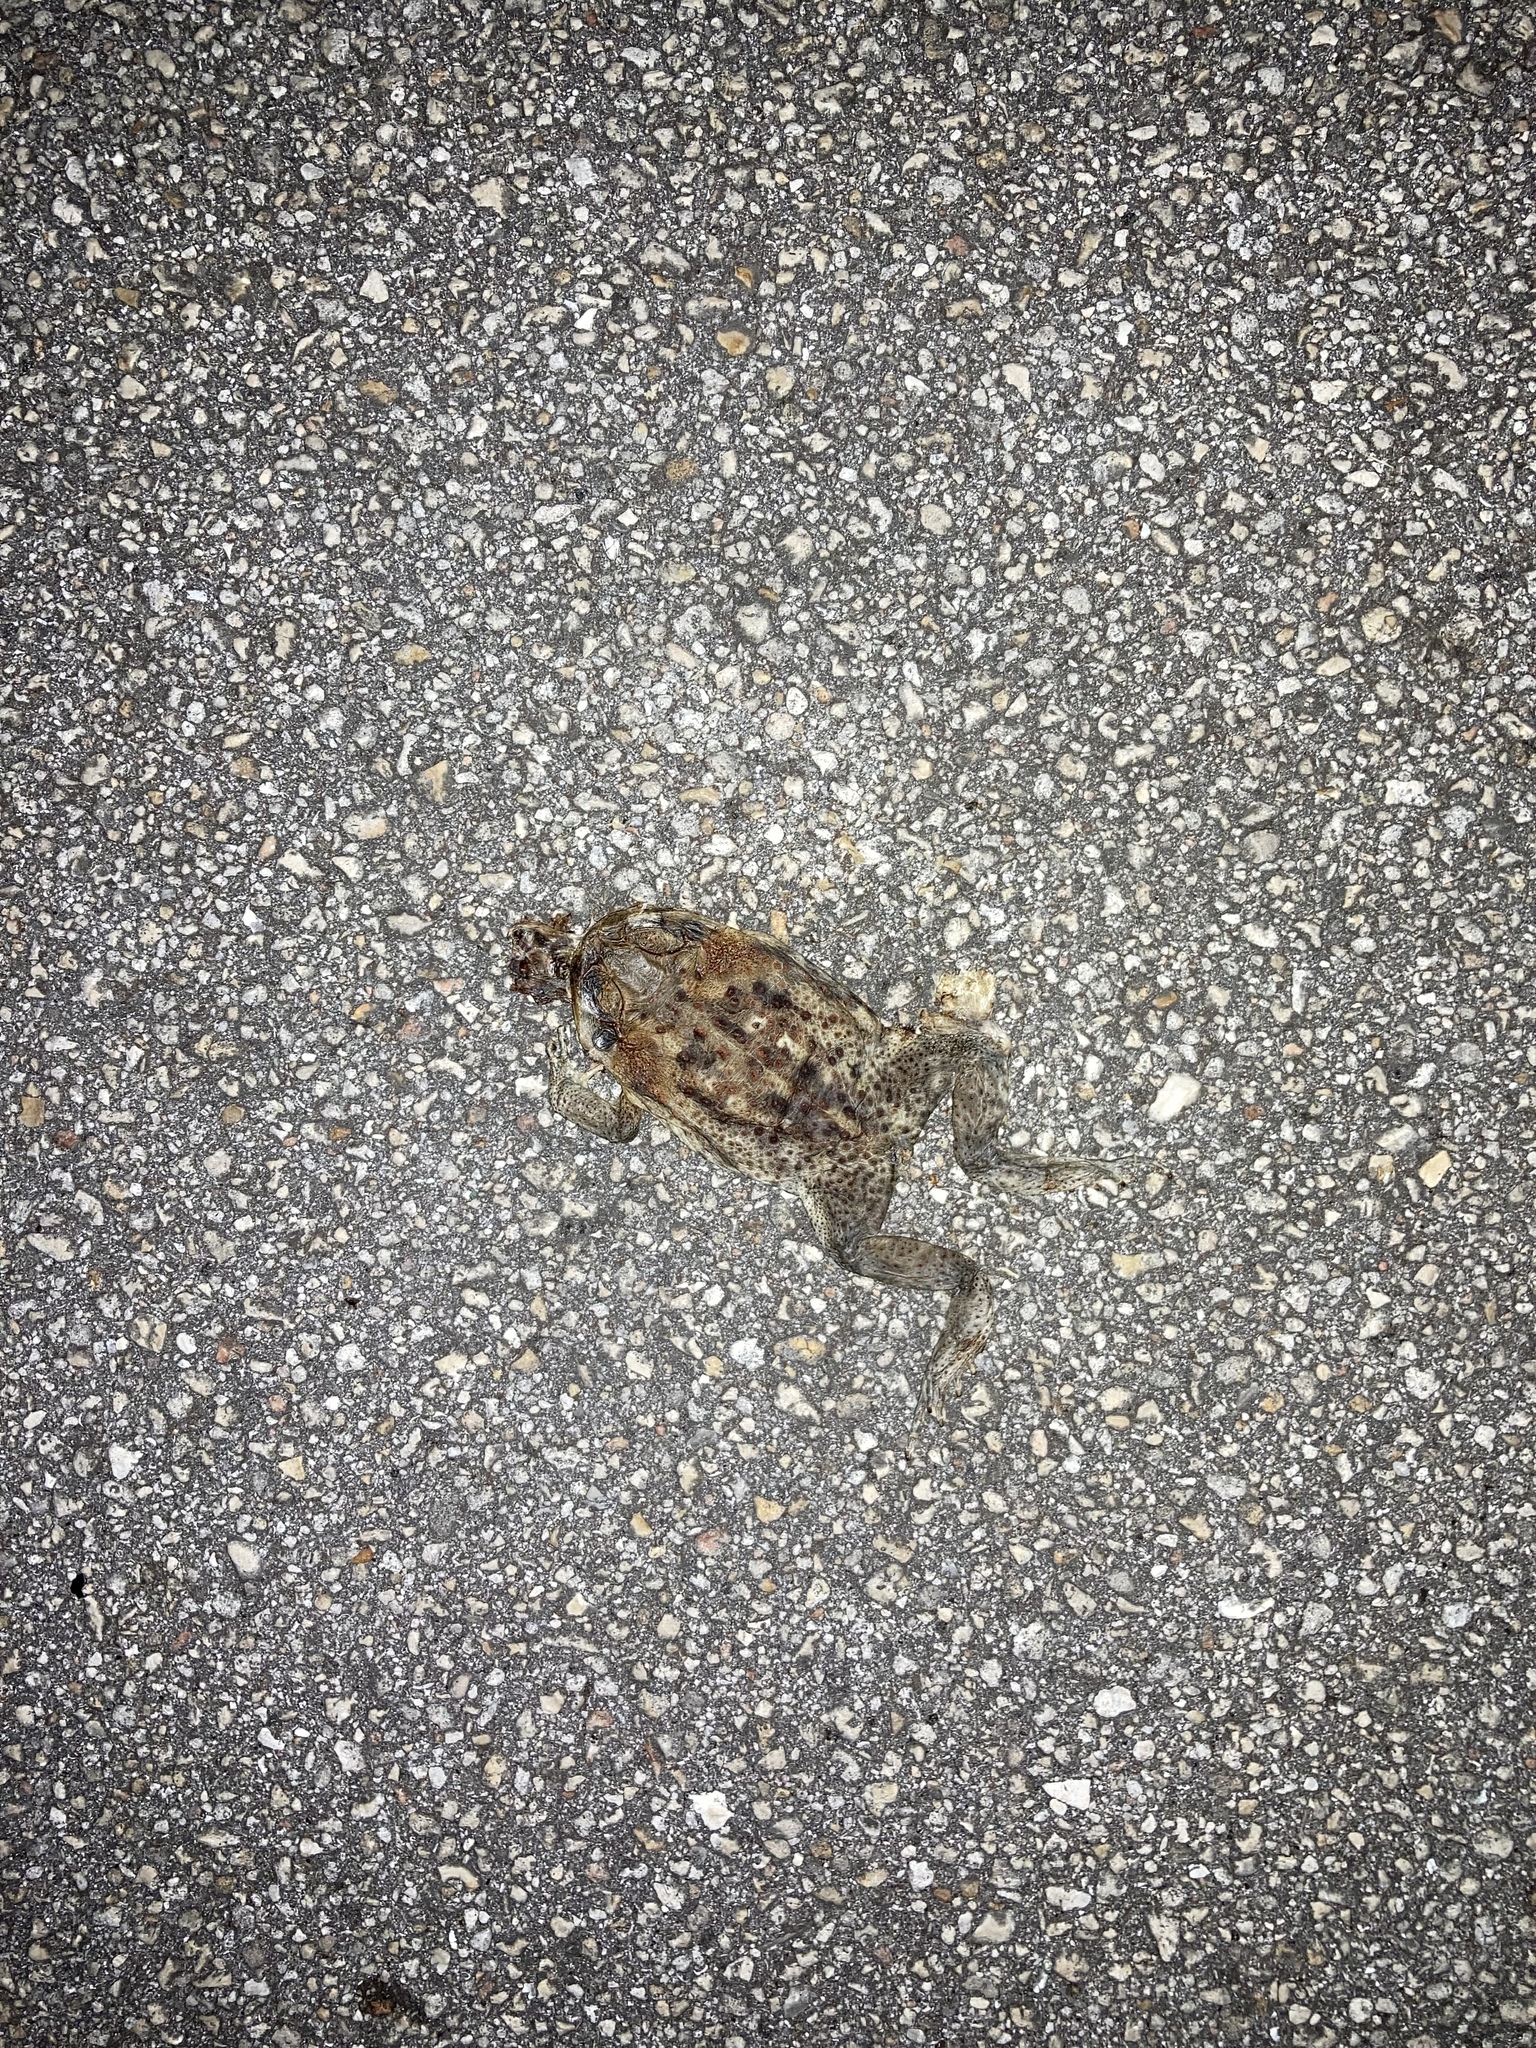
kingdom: Animalia
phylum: Chordata
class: Amphibia
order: Anura
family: Bufonidae
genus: Rhinella
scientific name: Rhinella marina
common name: Cane toad
